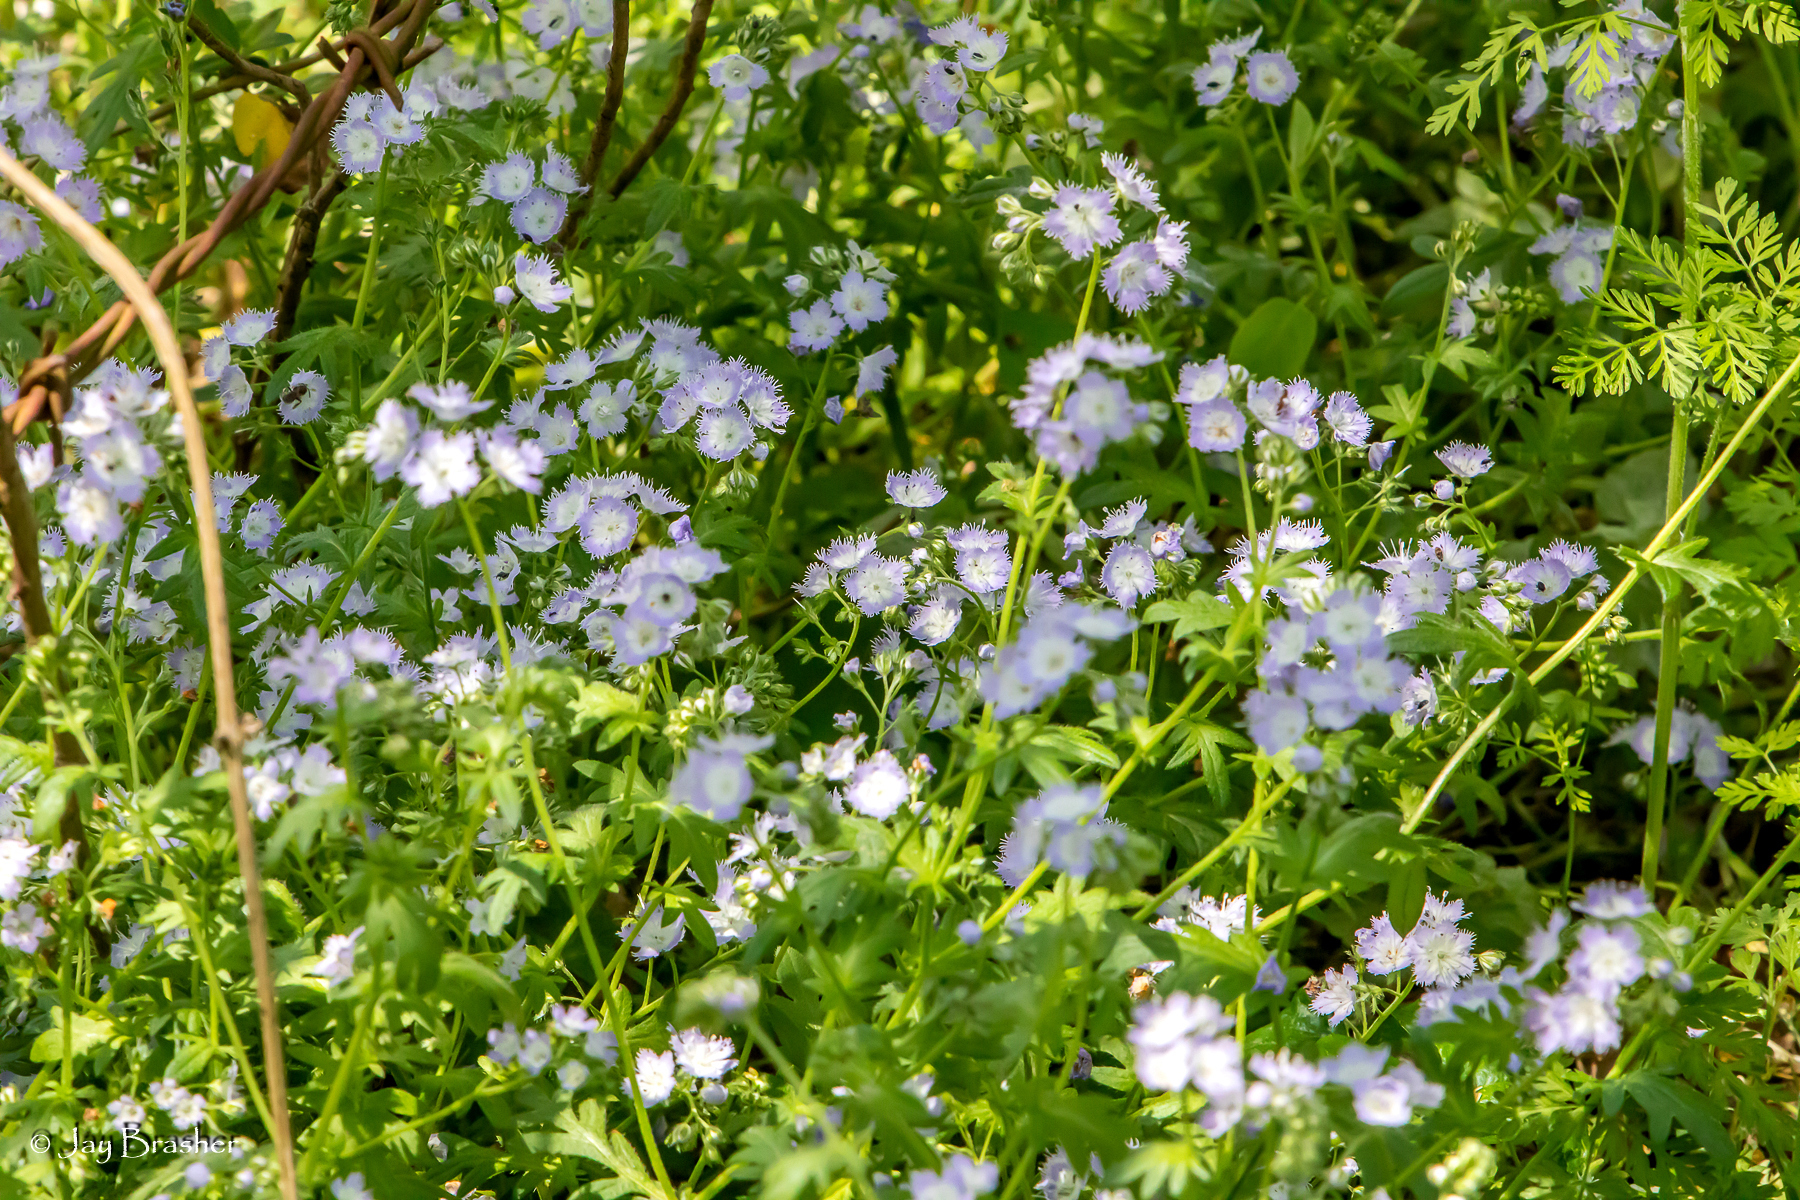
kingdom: Plantae
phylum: Tracheophyta
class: Magnoliopsida
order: Boraginales
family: Hydrophyllaceae
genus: Phacelia
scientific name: Phacelia purshii
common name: Miami-mist
